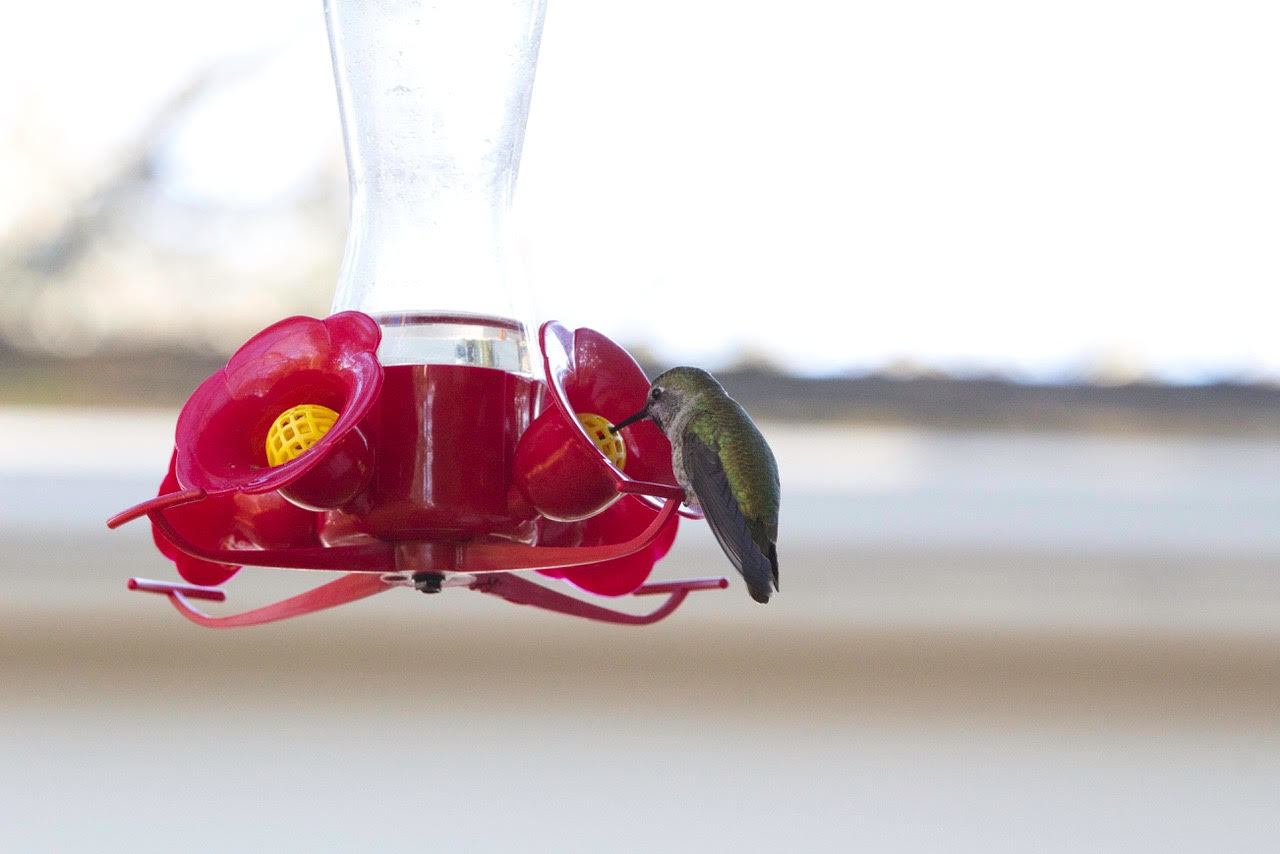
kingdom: Animalia
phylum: Chordata
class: Aves
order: Apodiformes
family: Trochilidae
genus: Calypte
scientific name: Calypte anna
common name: Anna's hummingbird
